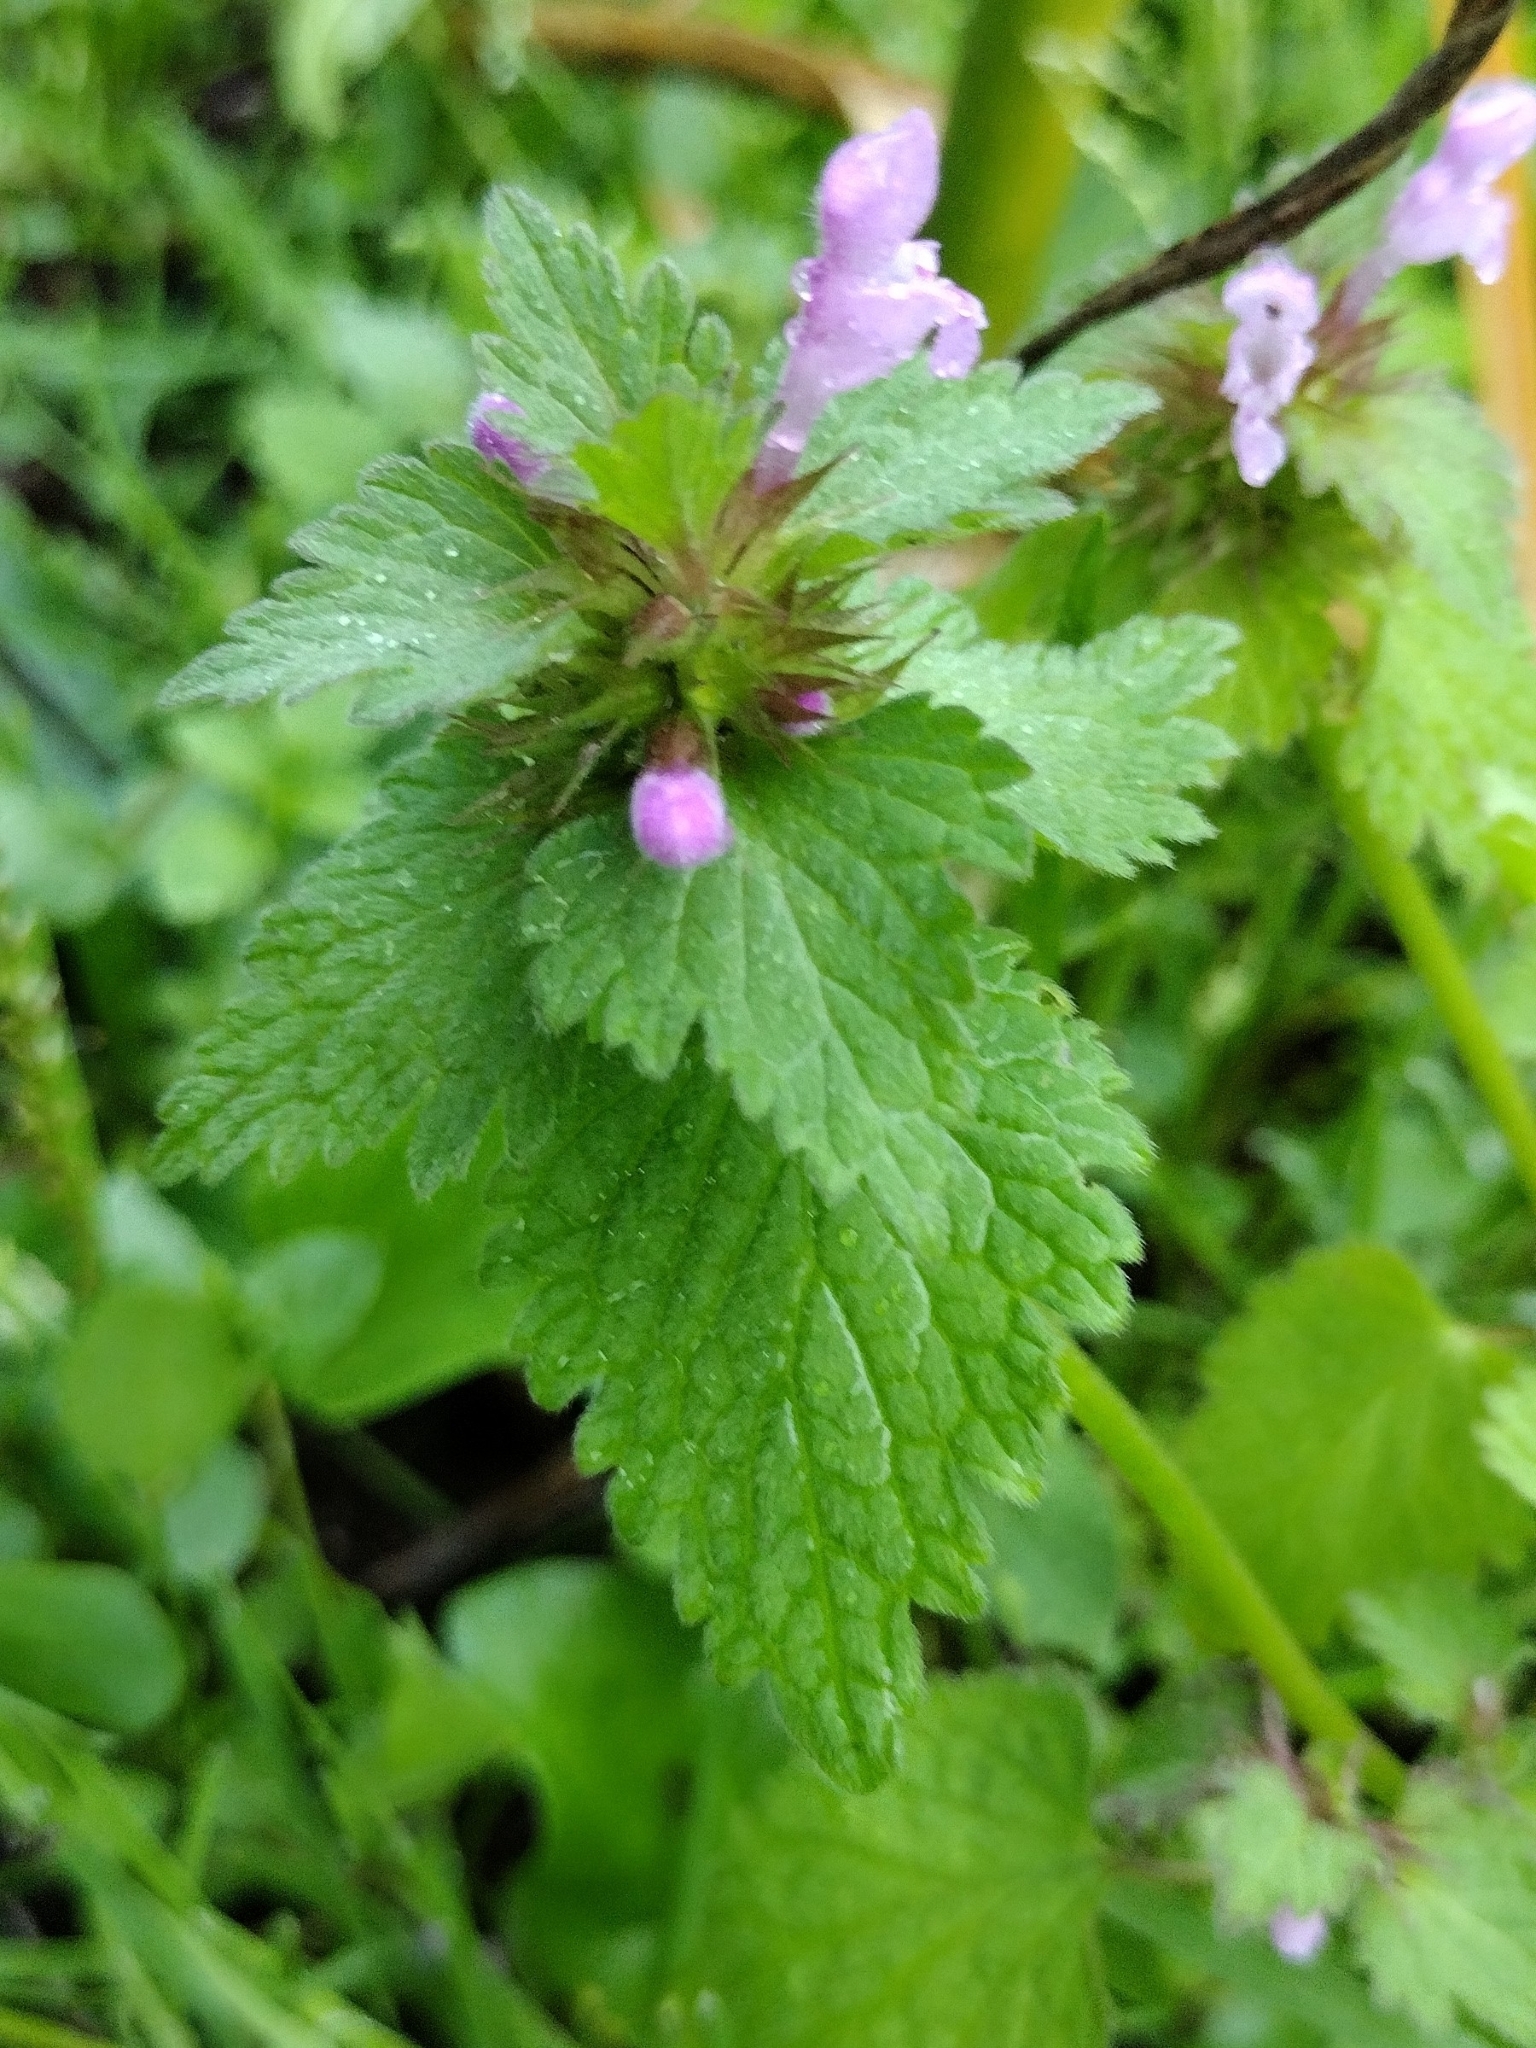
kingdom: Plantae
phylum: Tracheophyta
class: Magnoliopsida
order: Lamiales
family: Lamiaceae
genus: Lamium
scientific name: Lamium purpureum
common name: Red dead-nettle
